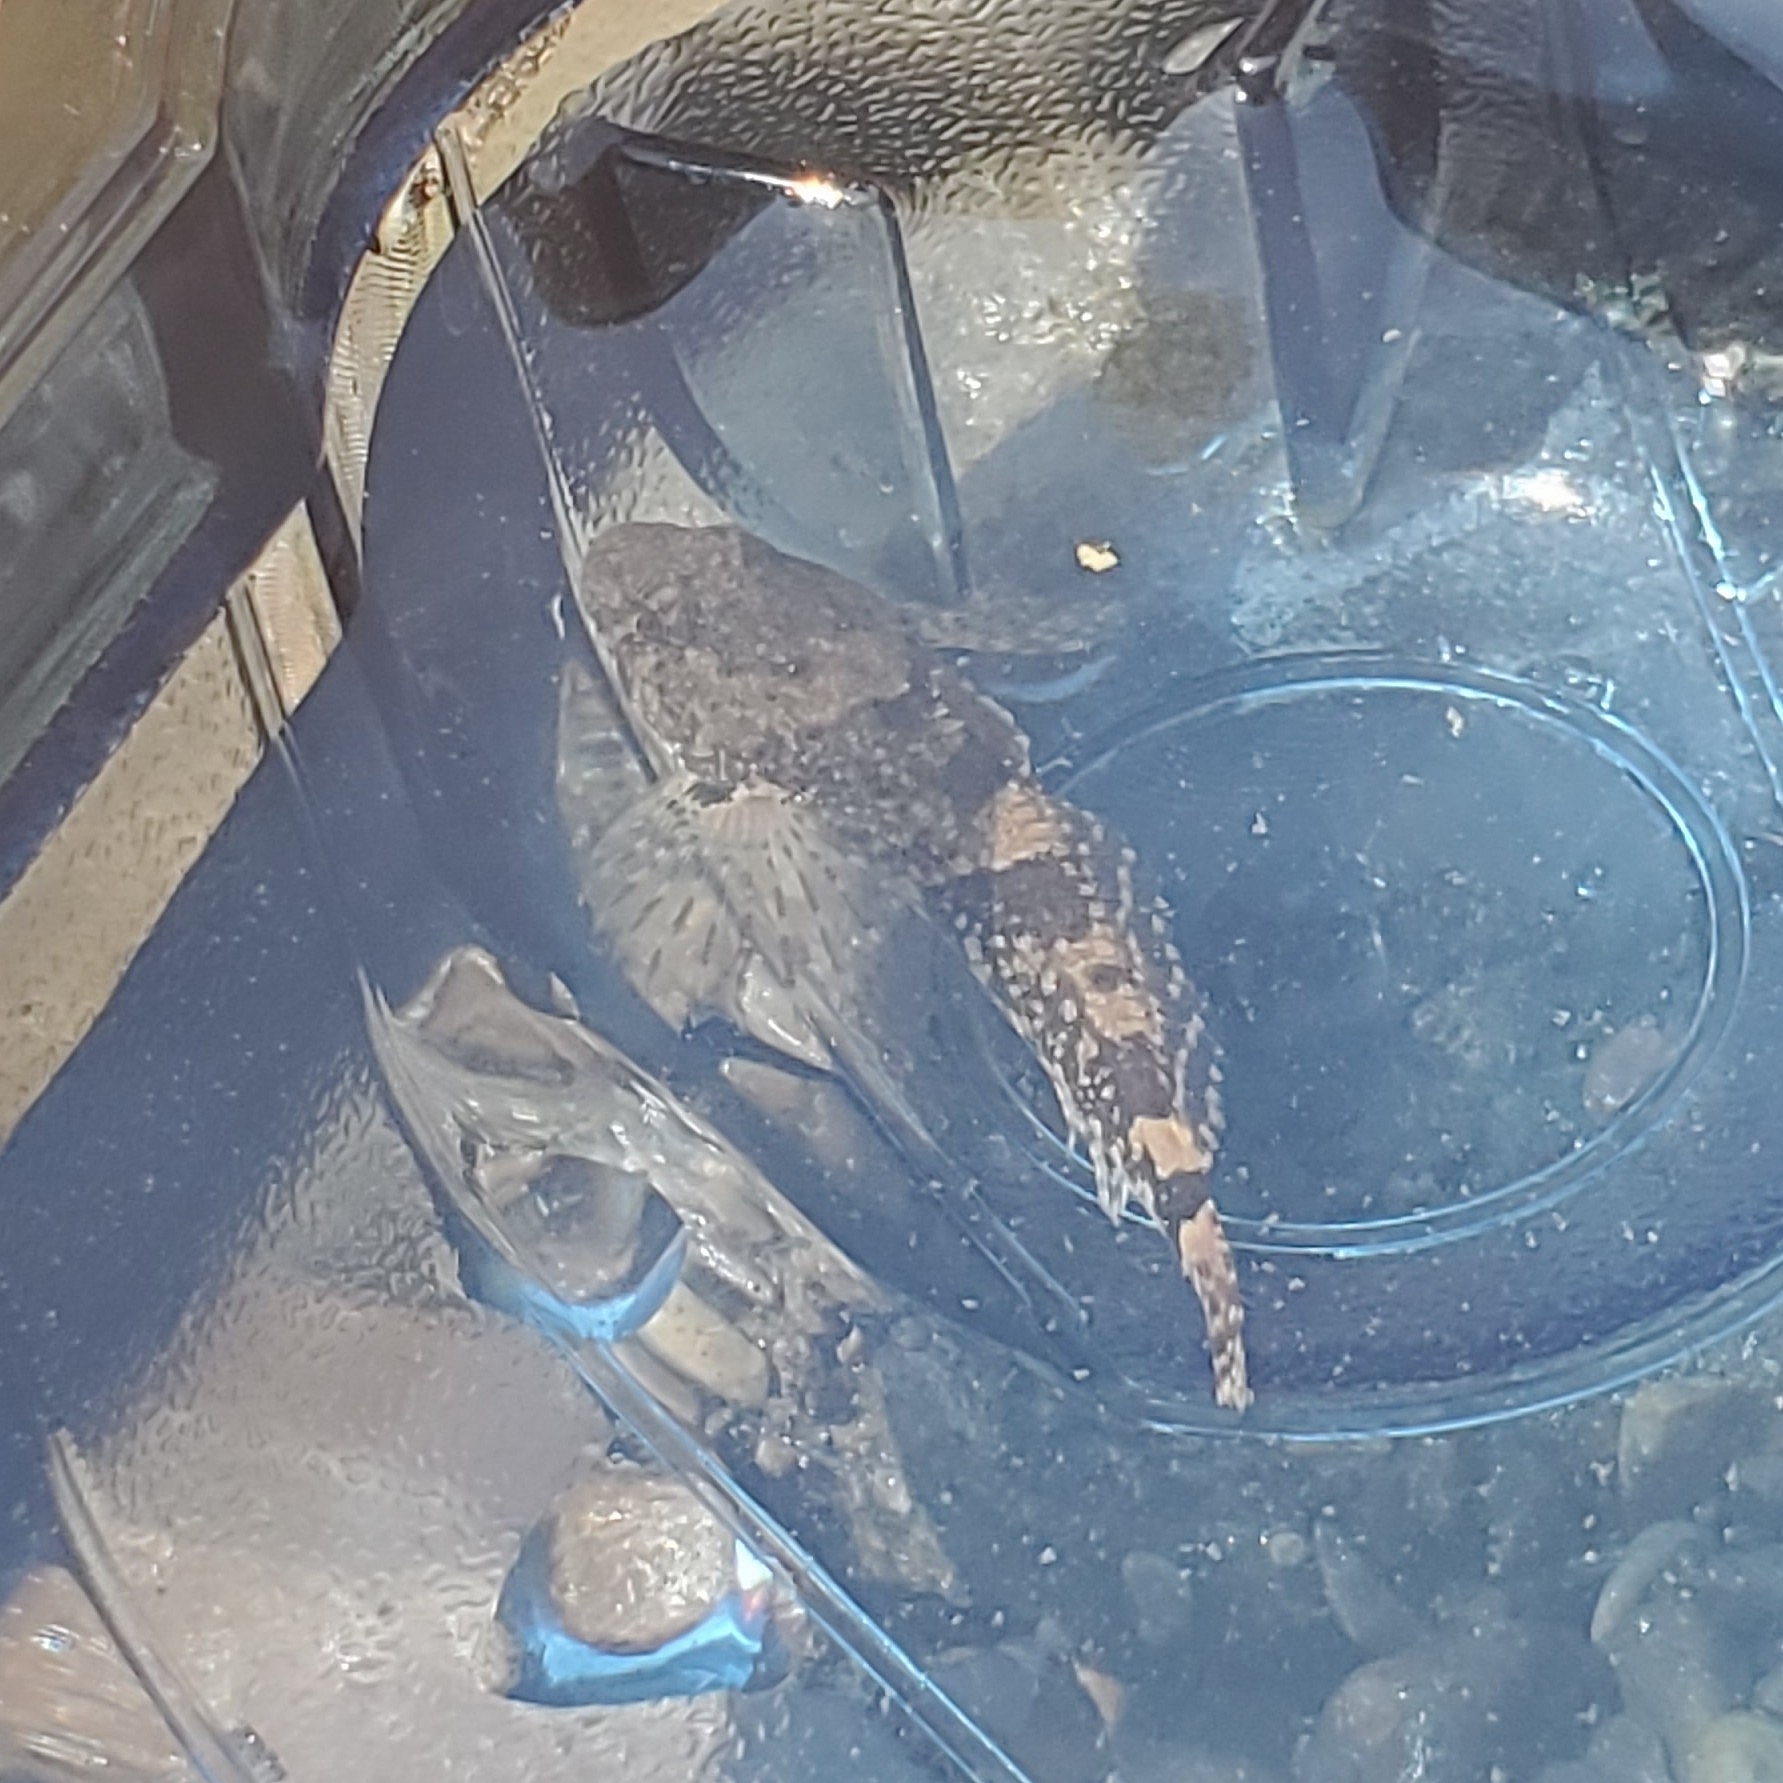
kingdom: Animalia
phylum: Chordata
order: Scorpaeniformes
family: Cottidae
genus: Cottus
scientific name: Cottus bairdii
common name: Mottled sculpin
